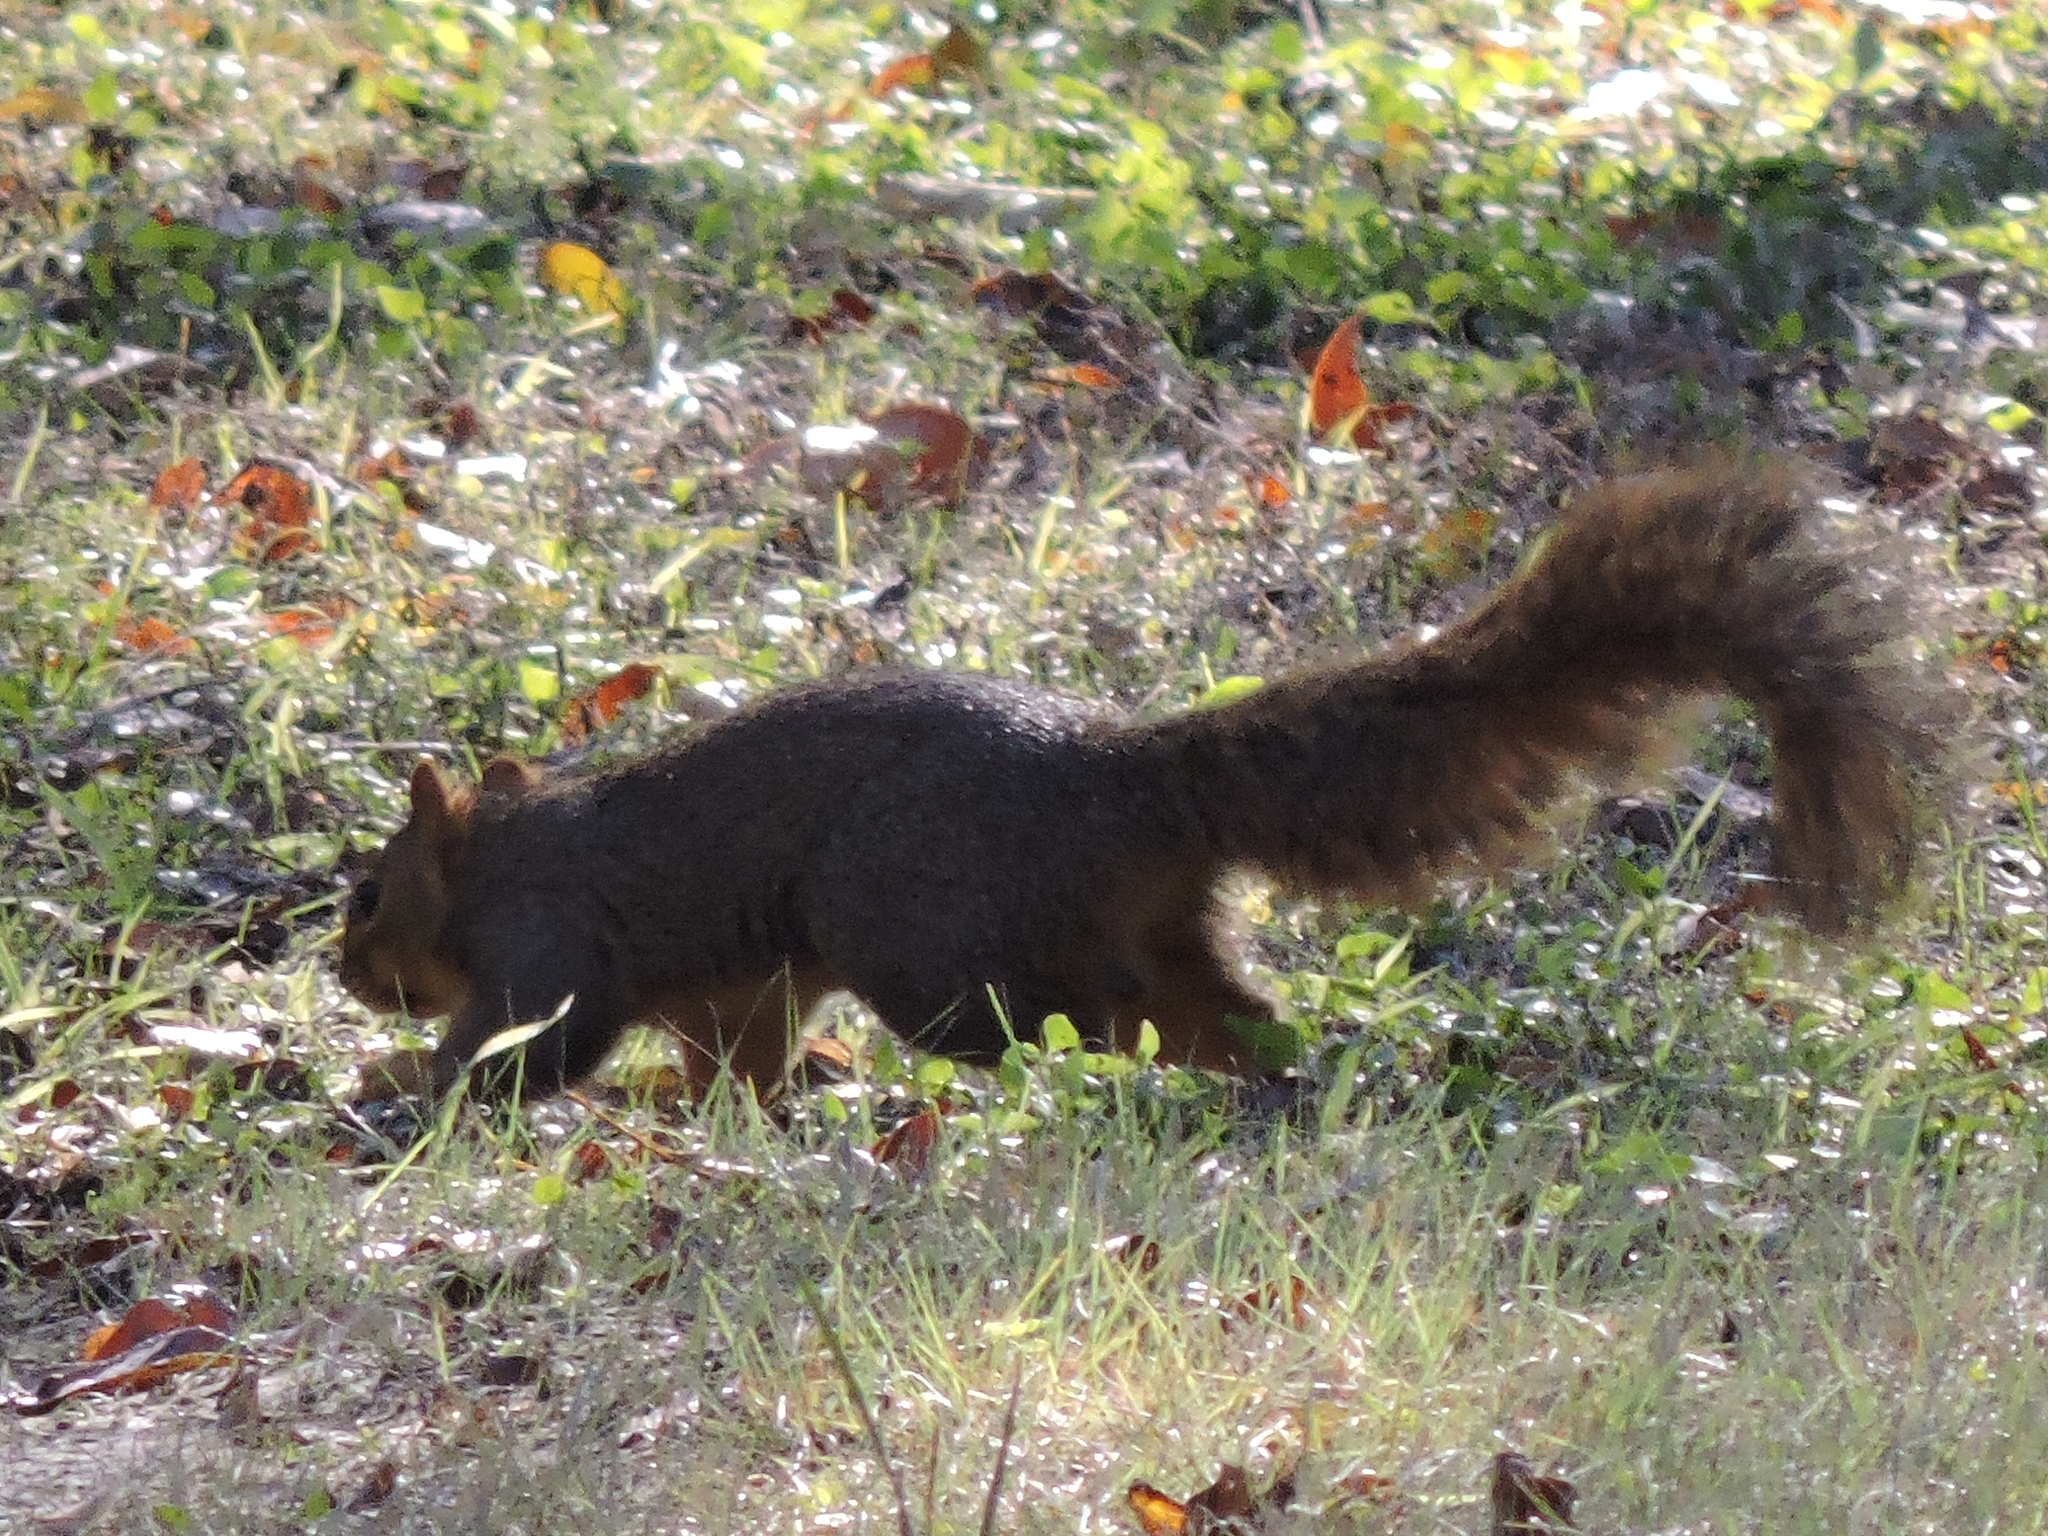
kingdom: Animalia
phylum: Chordata
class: Mammalia
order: Rodentia
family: Sciuridae
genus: Sciurus
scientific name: Sciurus niger
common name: Fox squirrel
